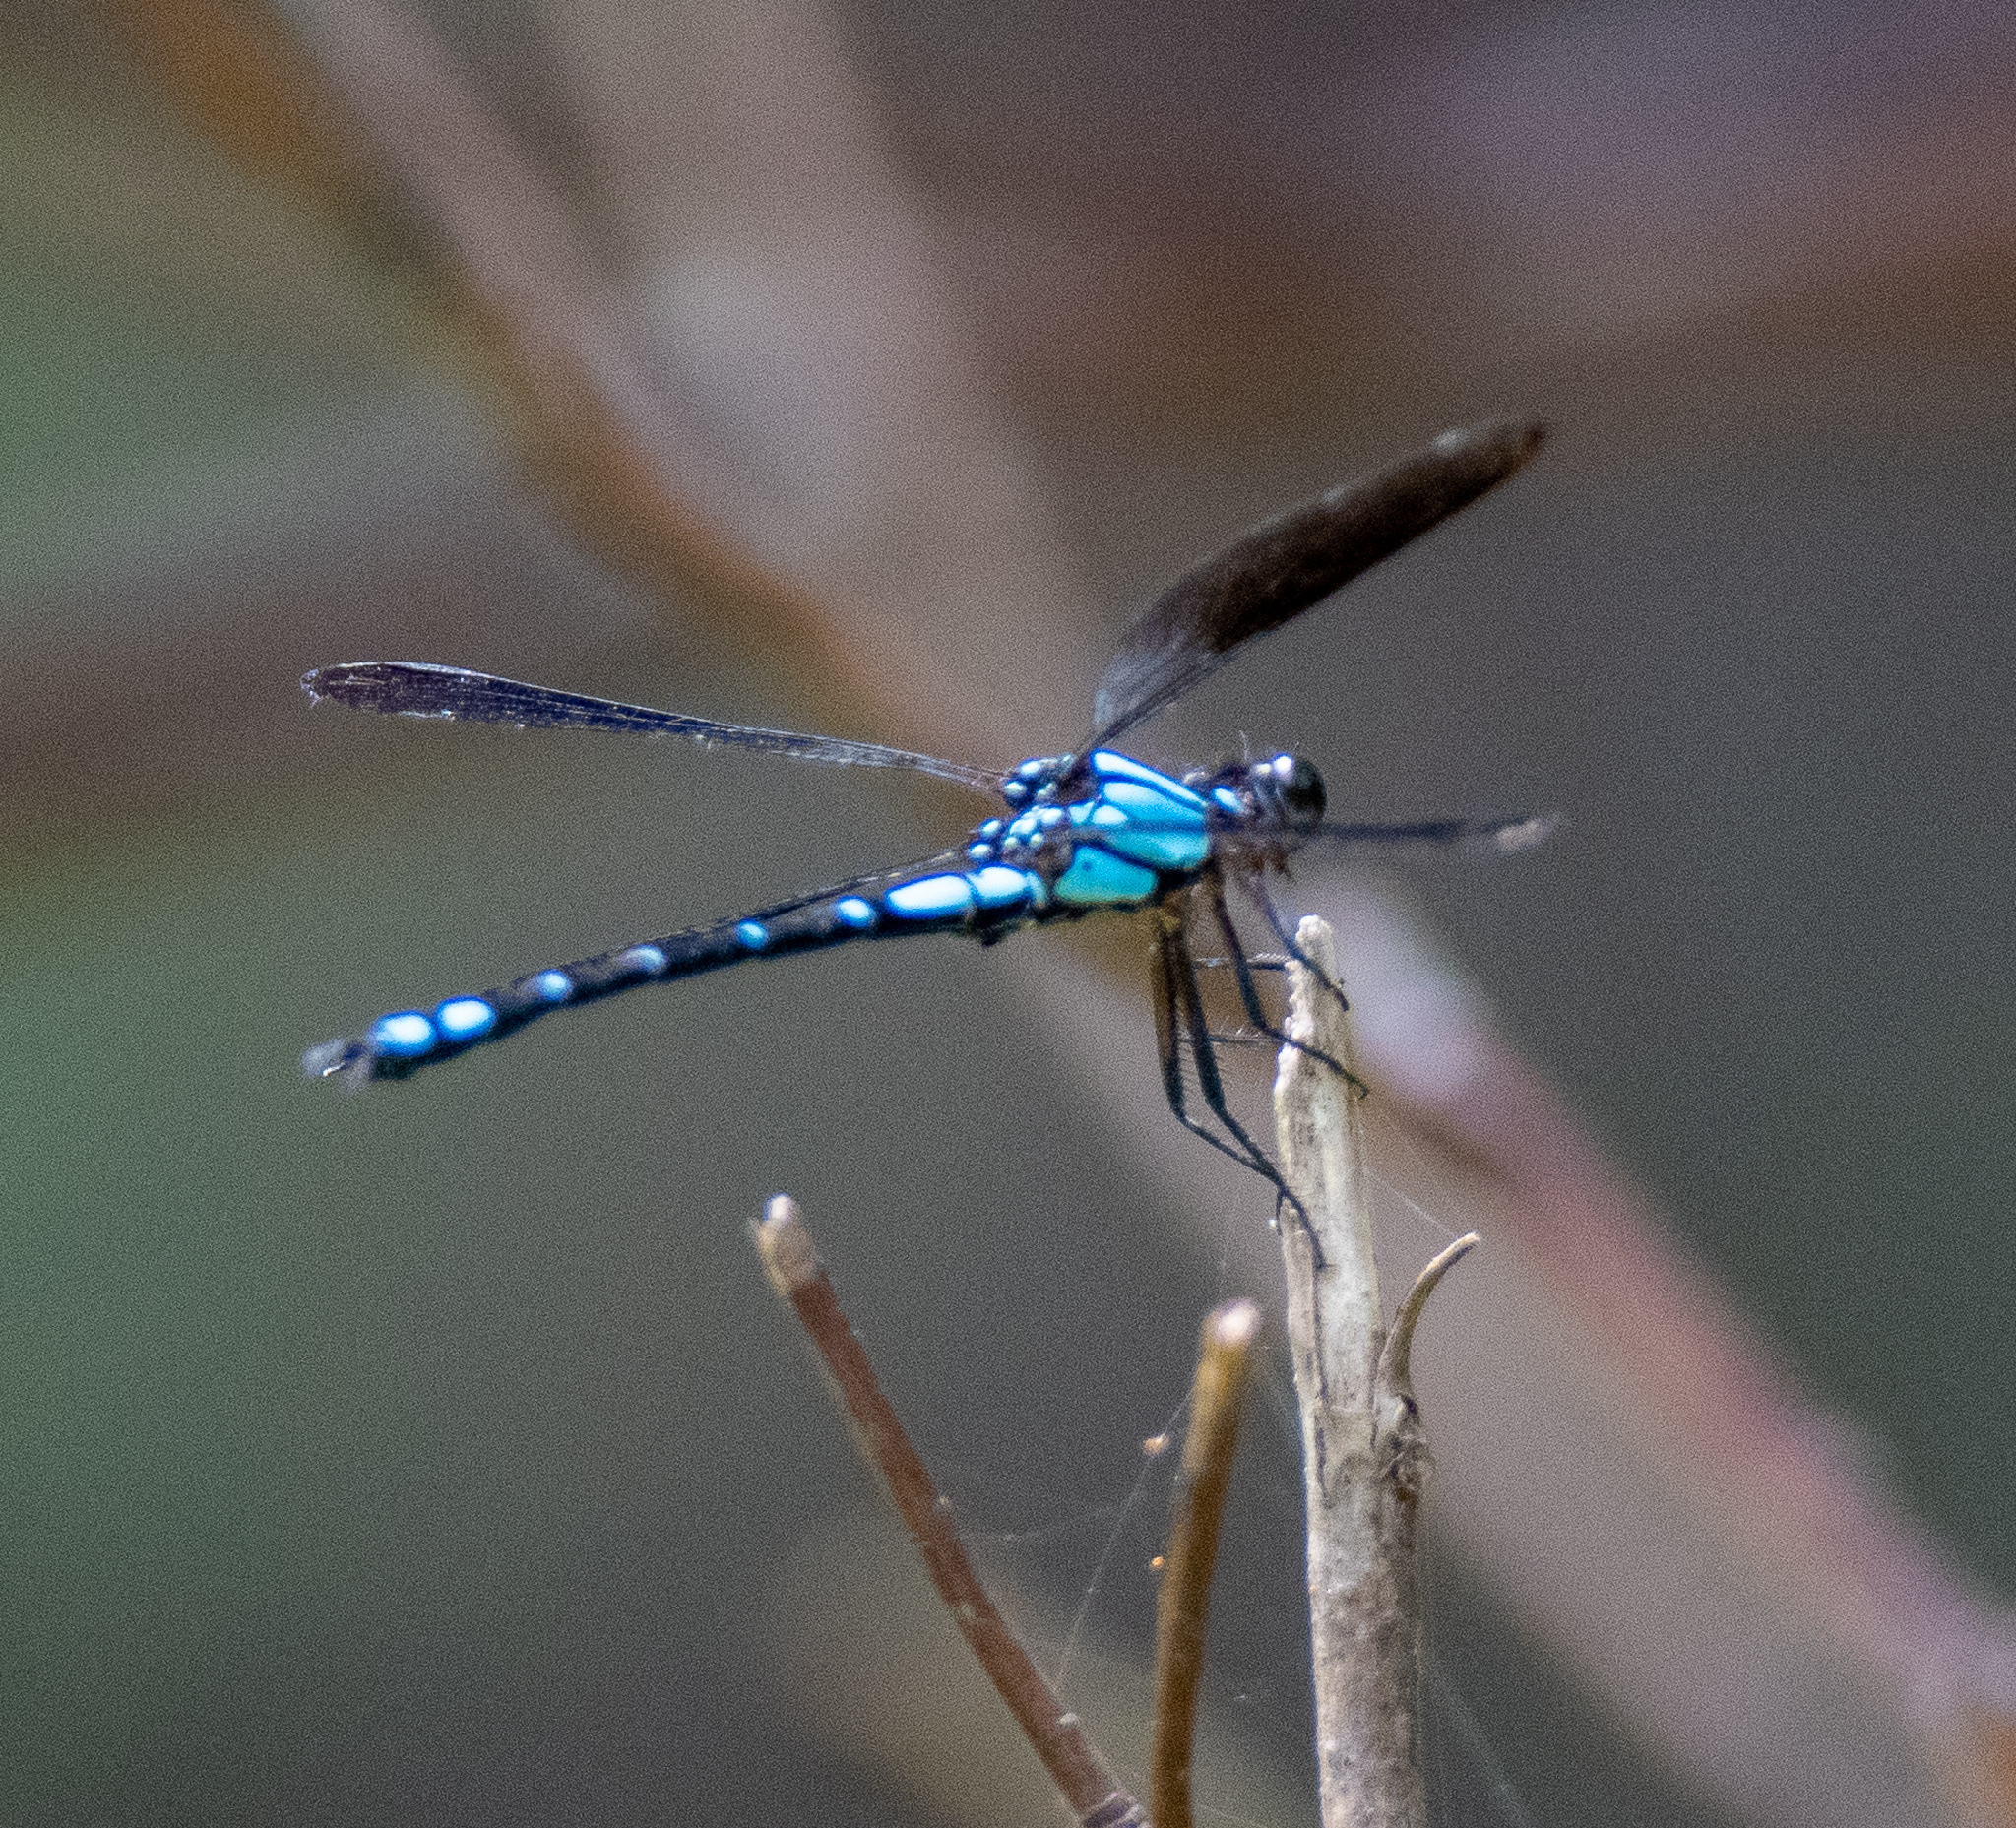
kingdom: Animalia
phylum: Arthropoda
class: Insecta
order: Odonata
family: Lestoideidae
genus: Diphlebia
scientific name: Diphlebia coerulescens
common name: Sapphire rockmaster
